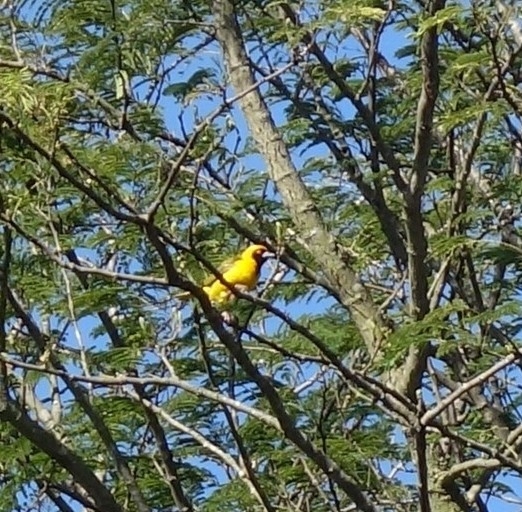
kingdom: Animalia
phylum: Chordata
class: Aves
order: Passeriformes
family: Ploceidae
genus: Ploceus
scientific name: Ploceus velatus
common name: Southern masked weaver
